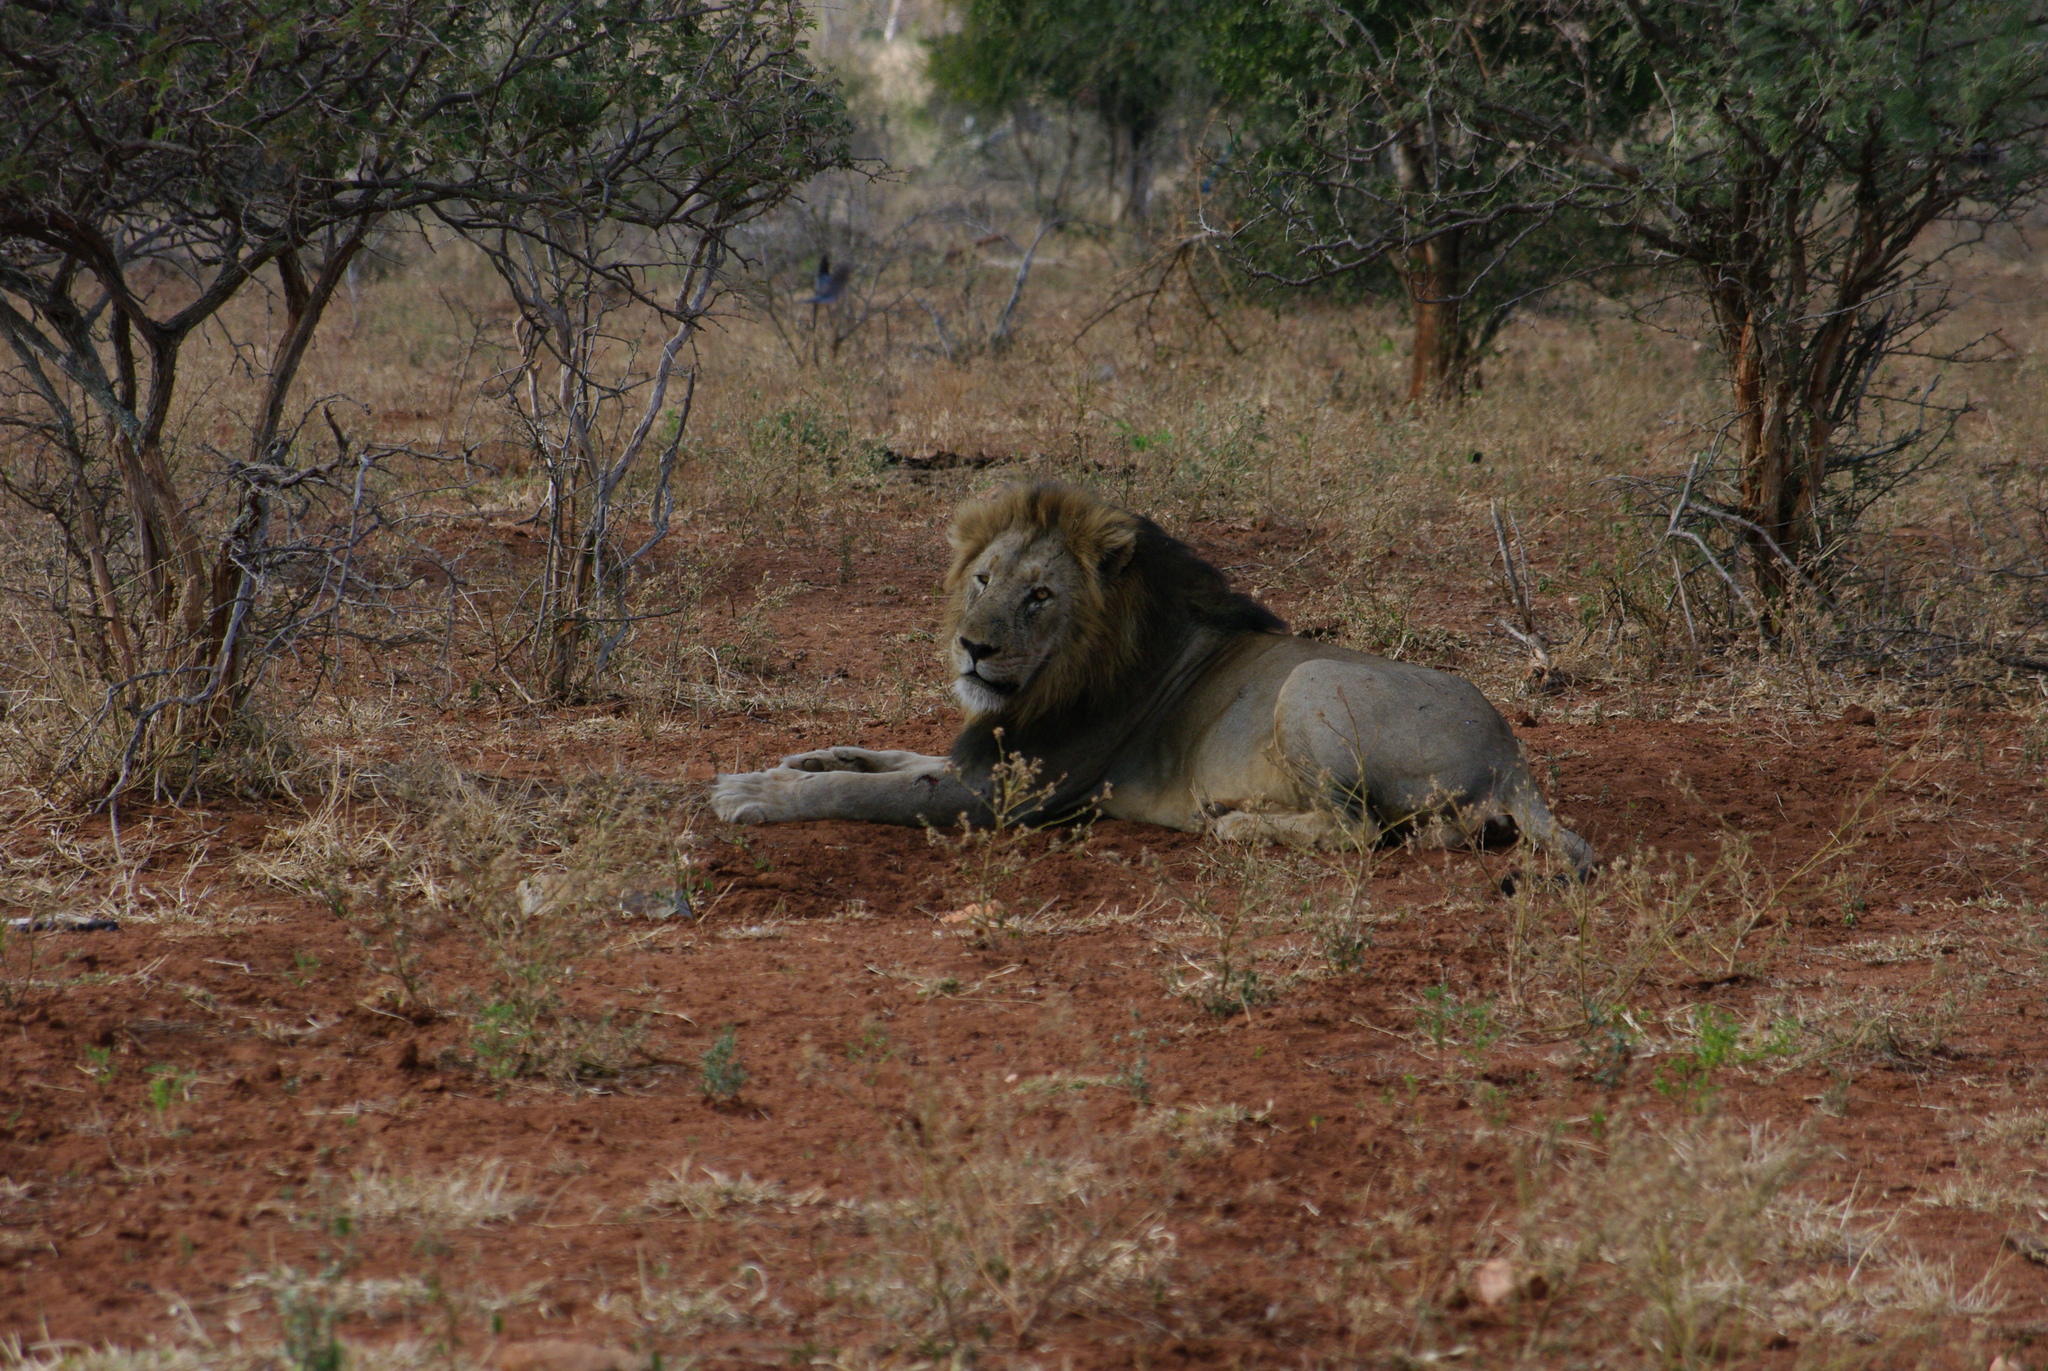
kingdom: Animalia
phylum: Chordata
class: Mammalia
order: Carnivora
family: Felidae
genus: Panthera
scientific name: Panthera leo
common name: Lion
